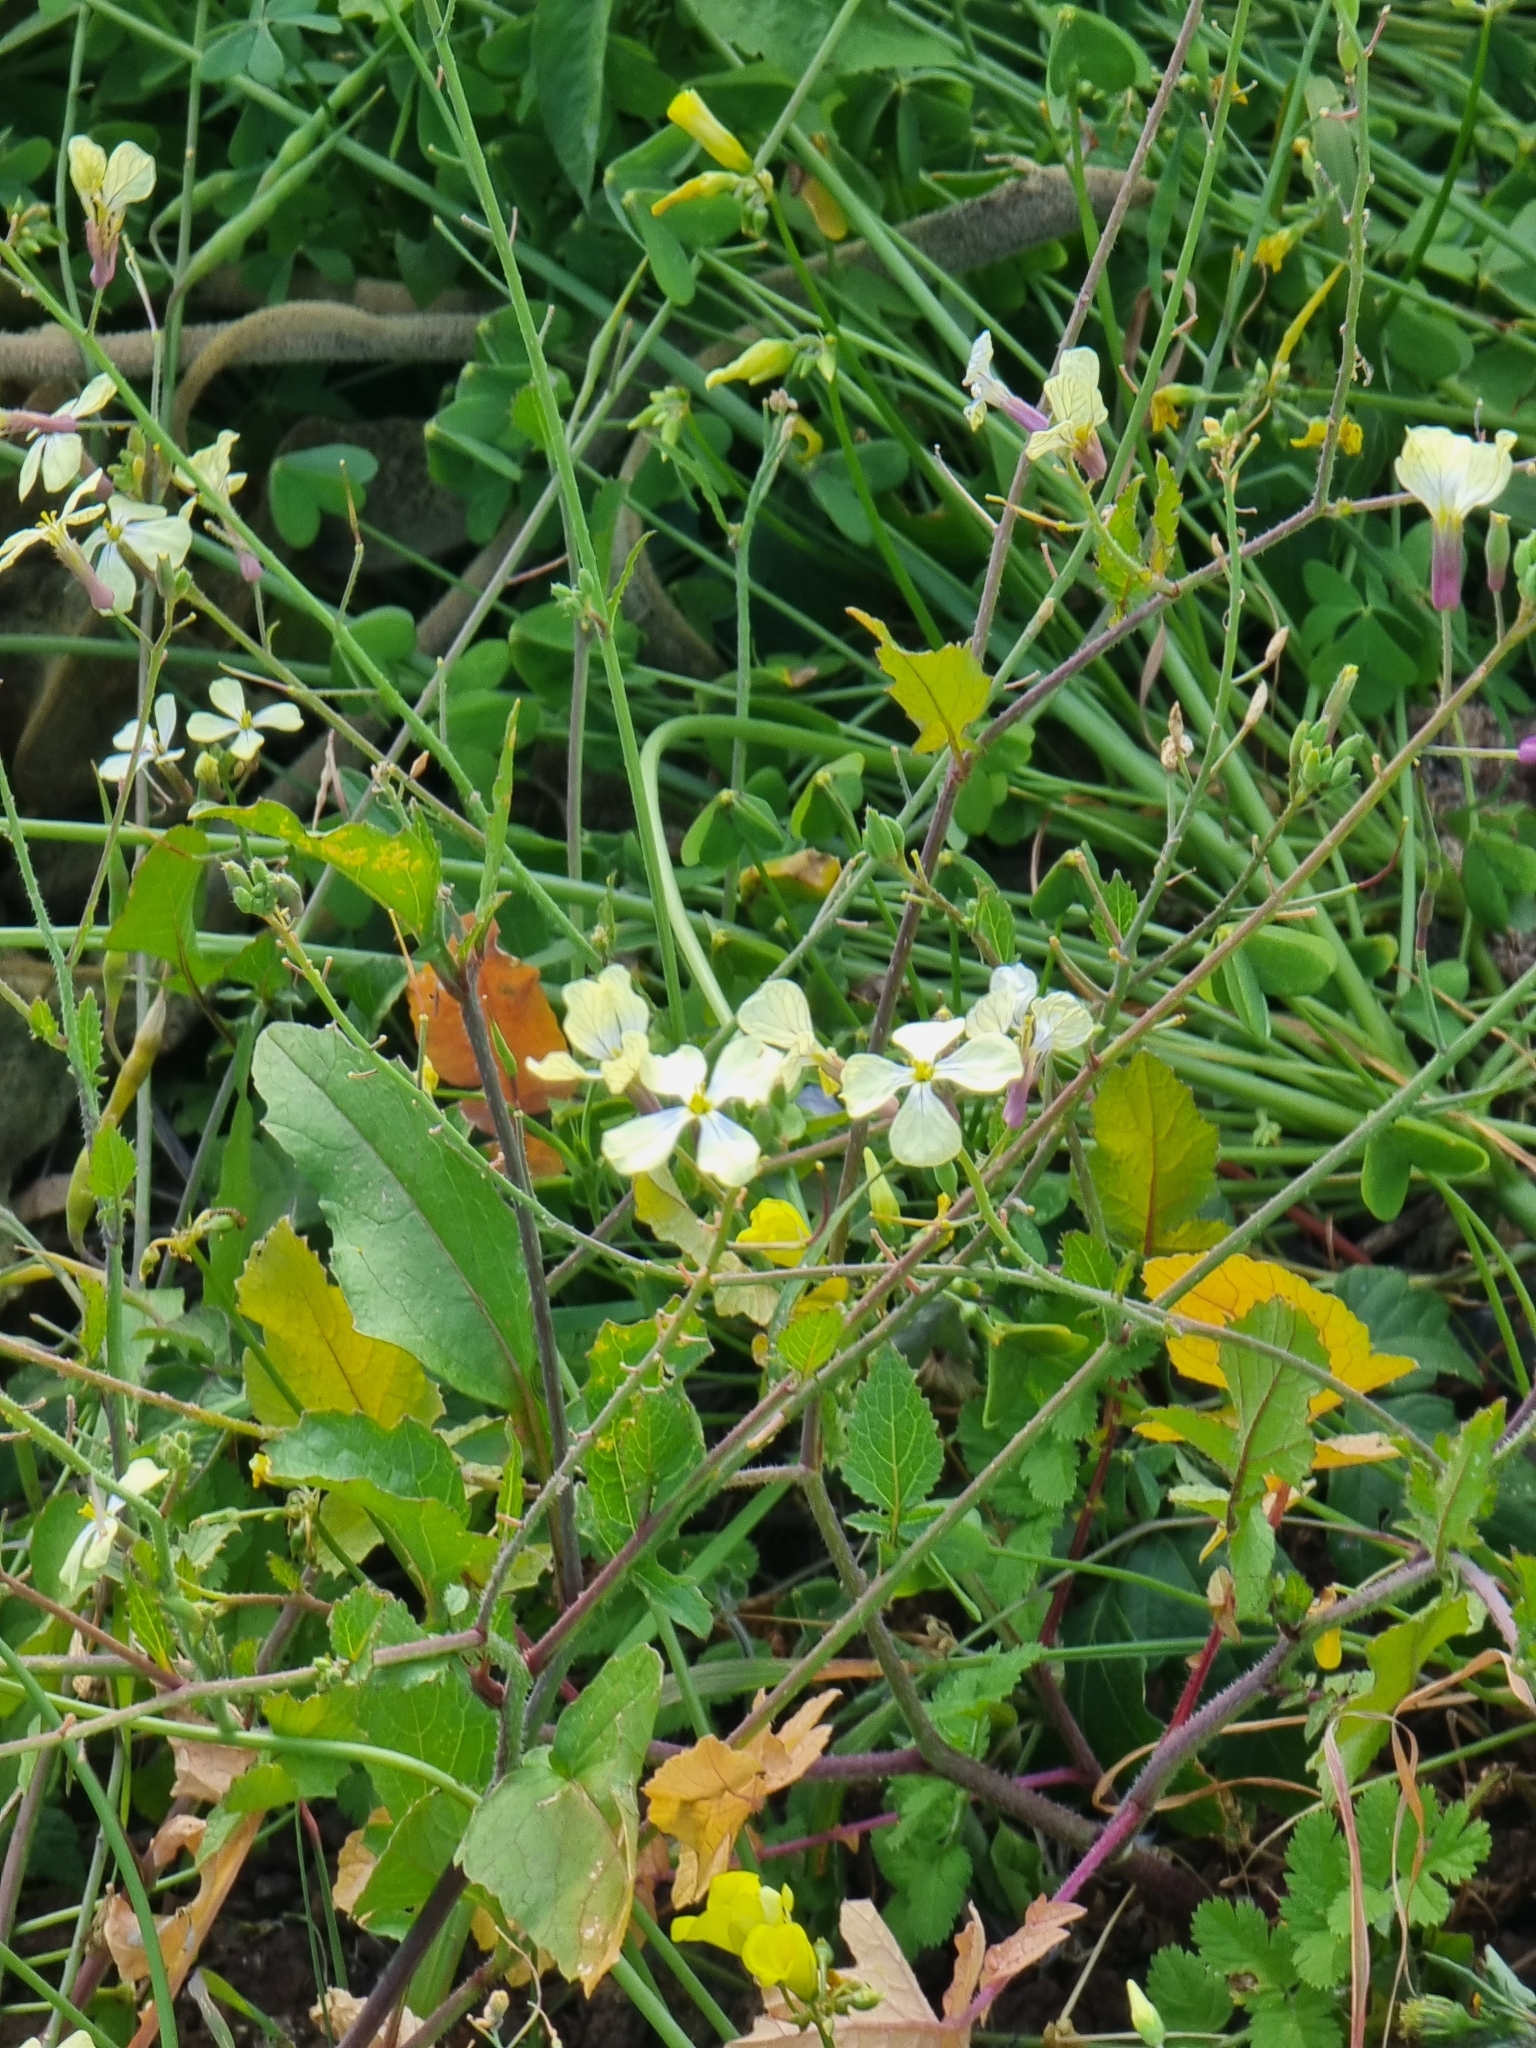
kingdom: Plantae
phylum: Tracheophyta
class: Magnoliopsida
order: Brassicales
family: Brassicaceae
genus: Raphanus
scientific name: Raphanus raphanistrum
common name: Wild radish
